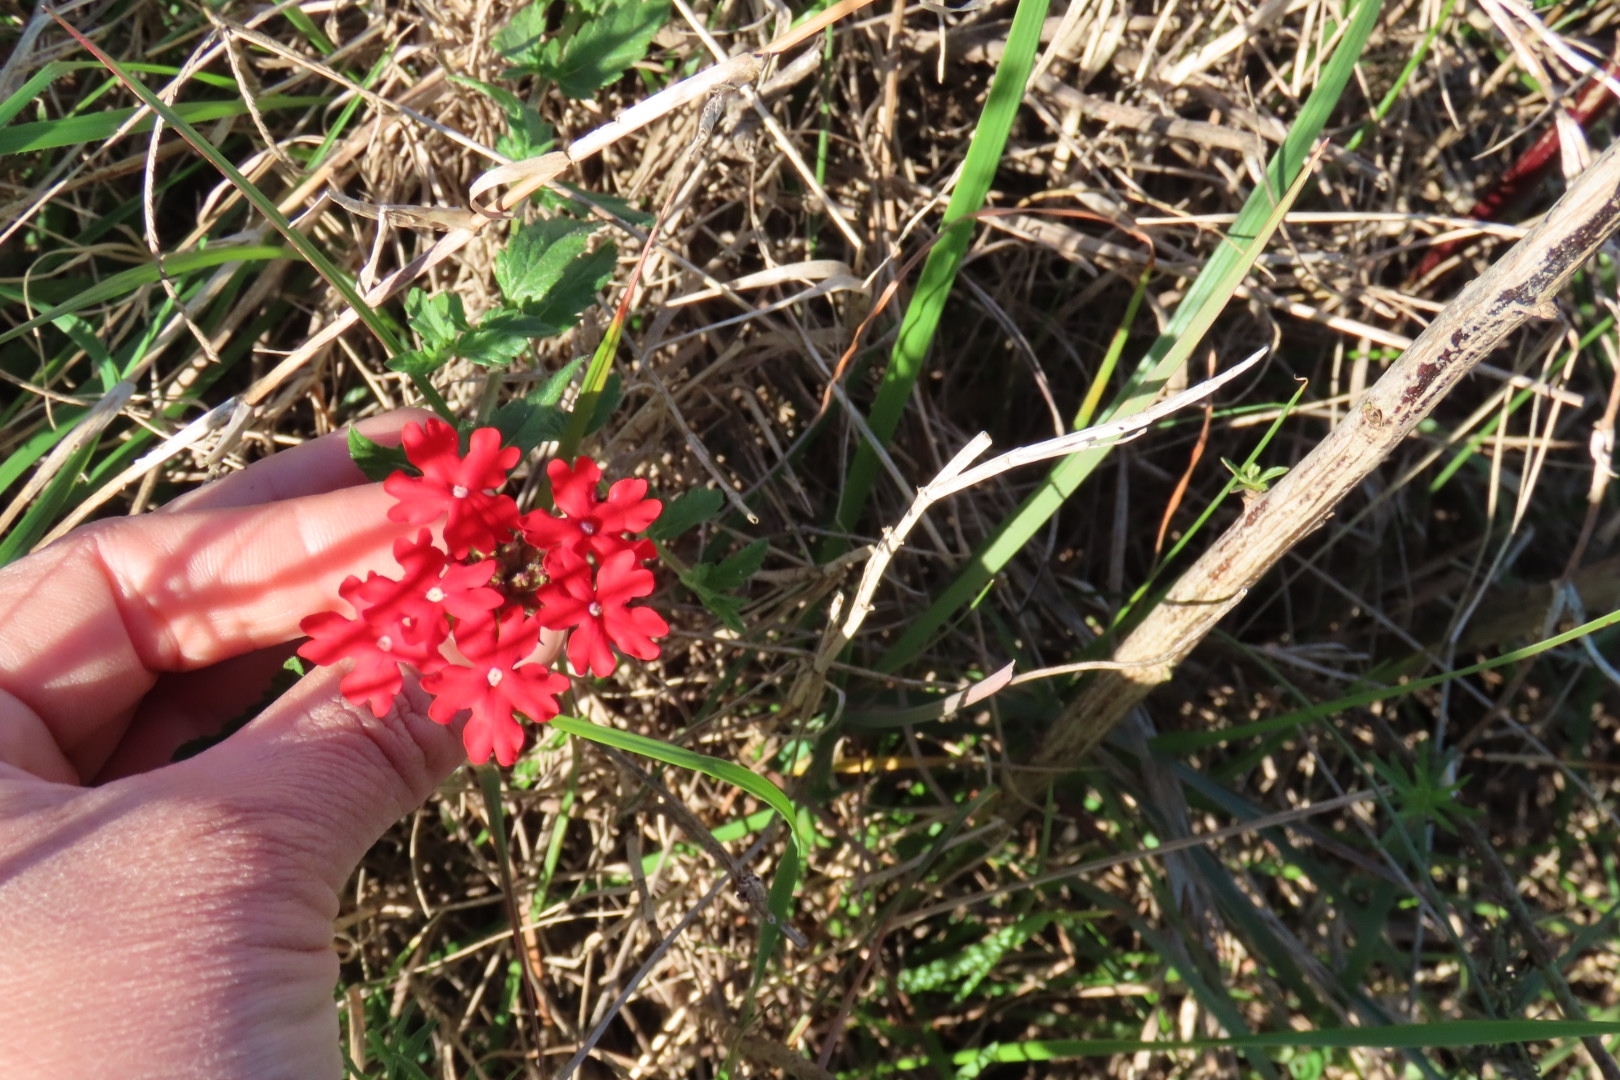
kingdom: Plantae
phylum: Tracheophyta
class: Magnoliopsida
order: Lamiales
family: Verbenaceae
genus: Verbena
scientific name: Verbena peruviana
